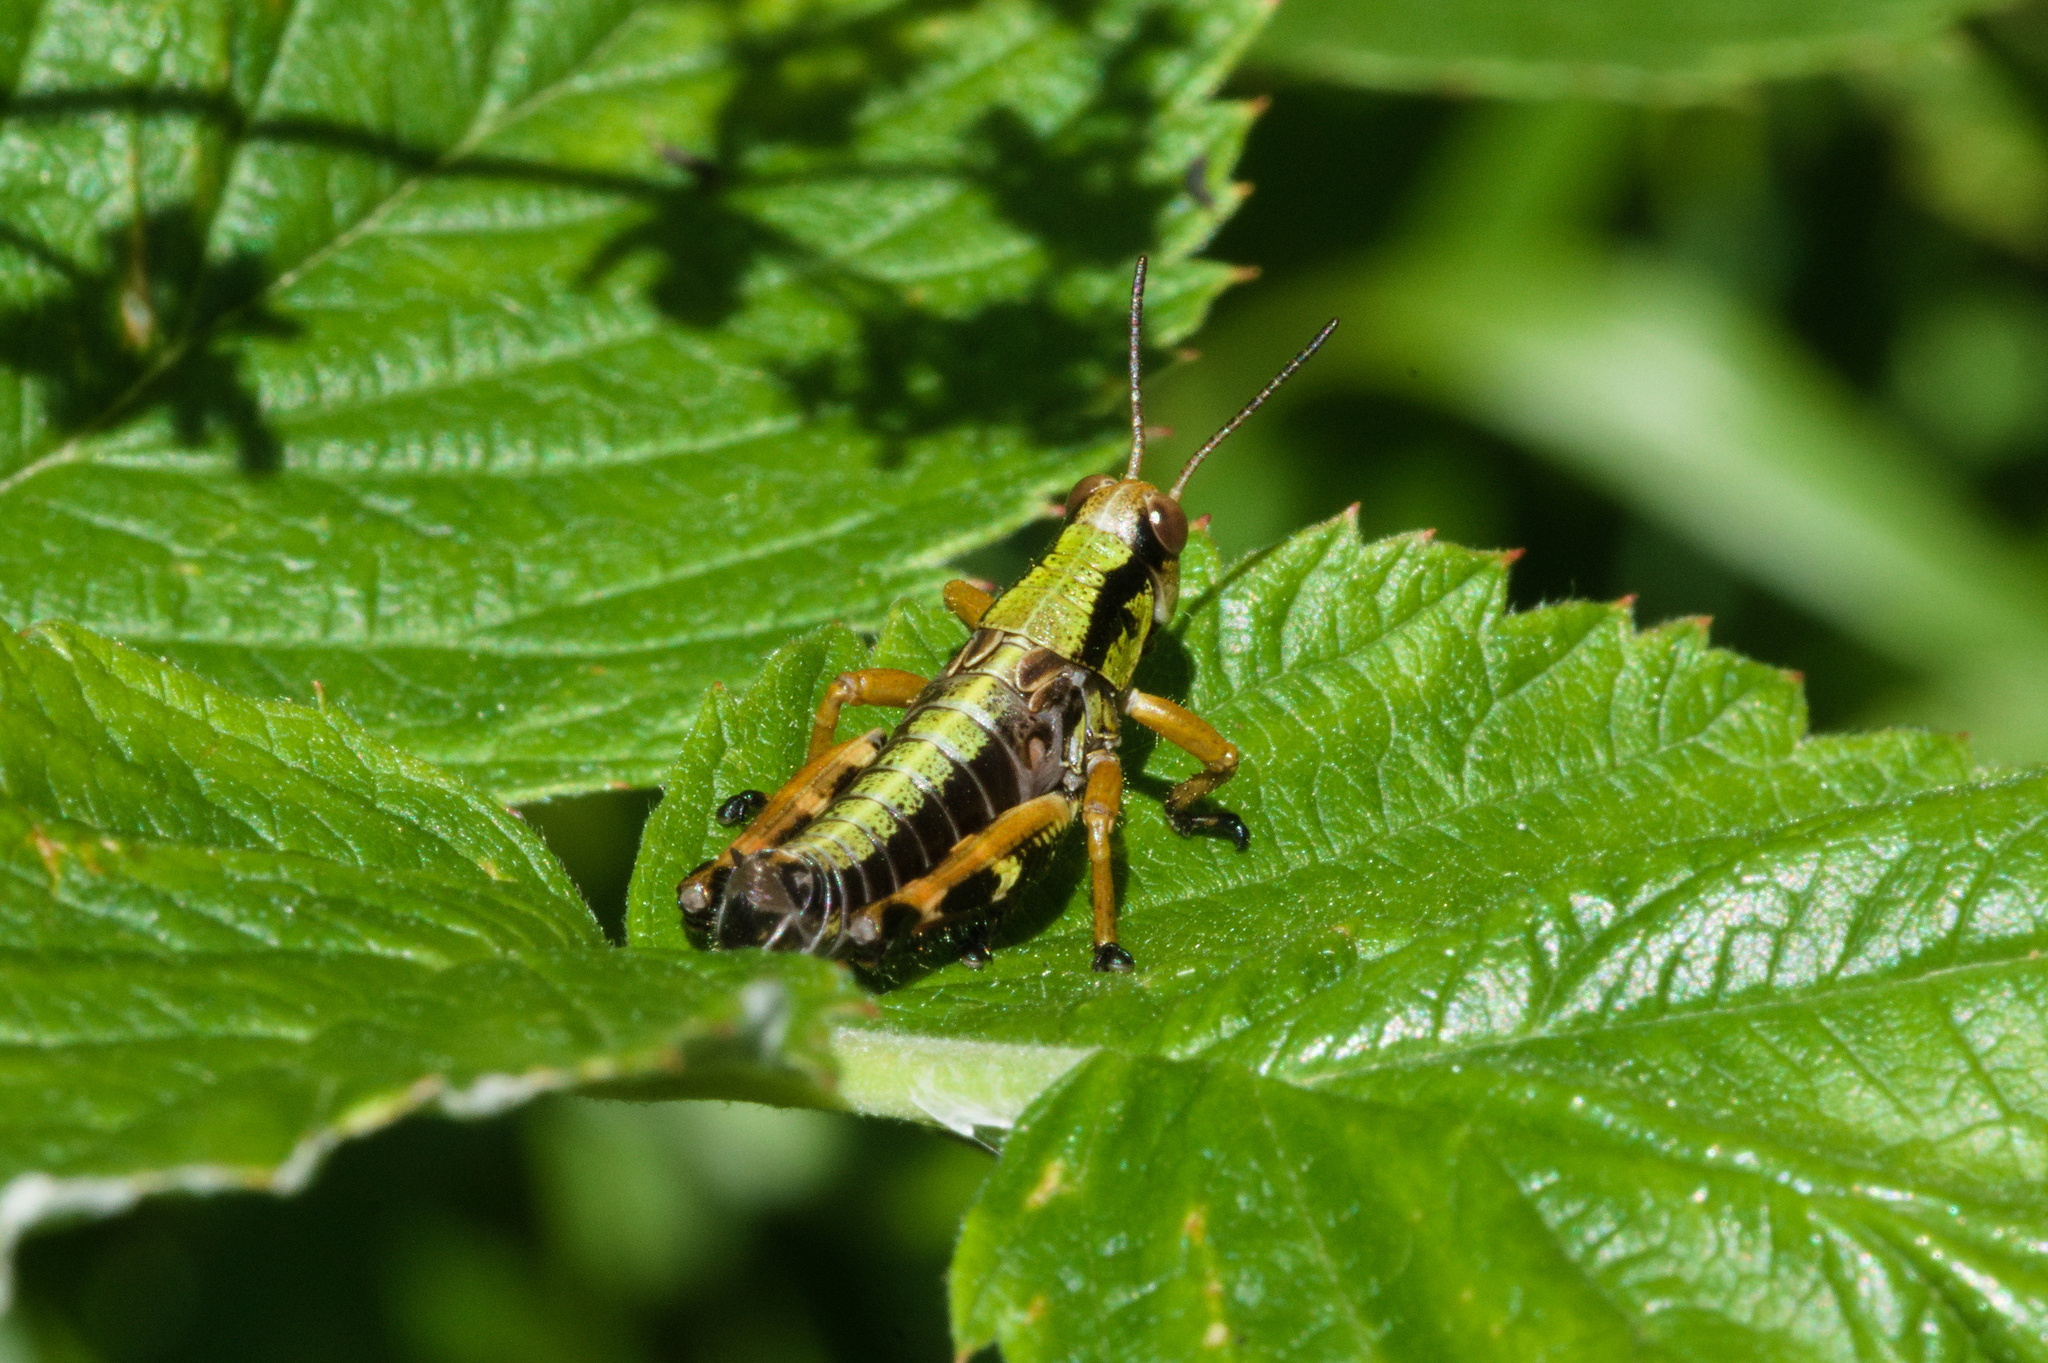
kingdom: Animalia
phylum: Arthropoda
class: Insecta
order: Orthoptera
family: Acrididae
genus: Miramella
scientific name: Miramella alpina
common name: Green mountain grasshopper
